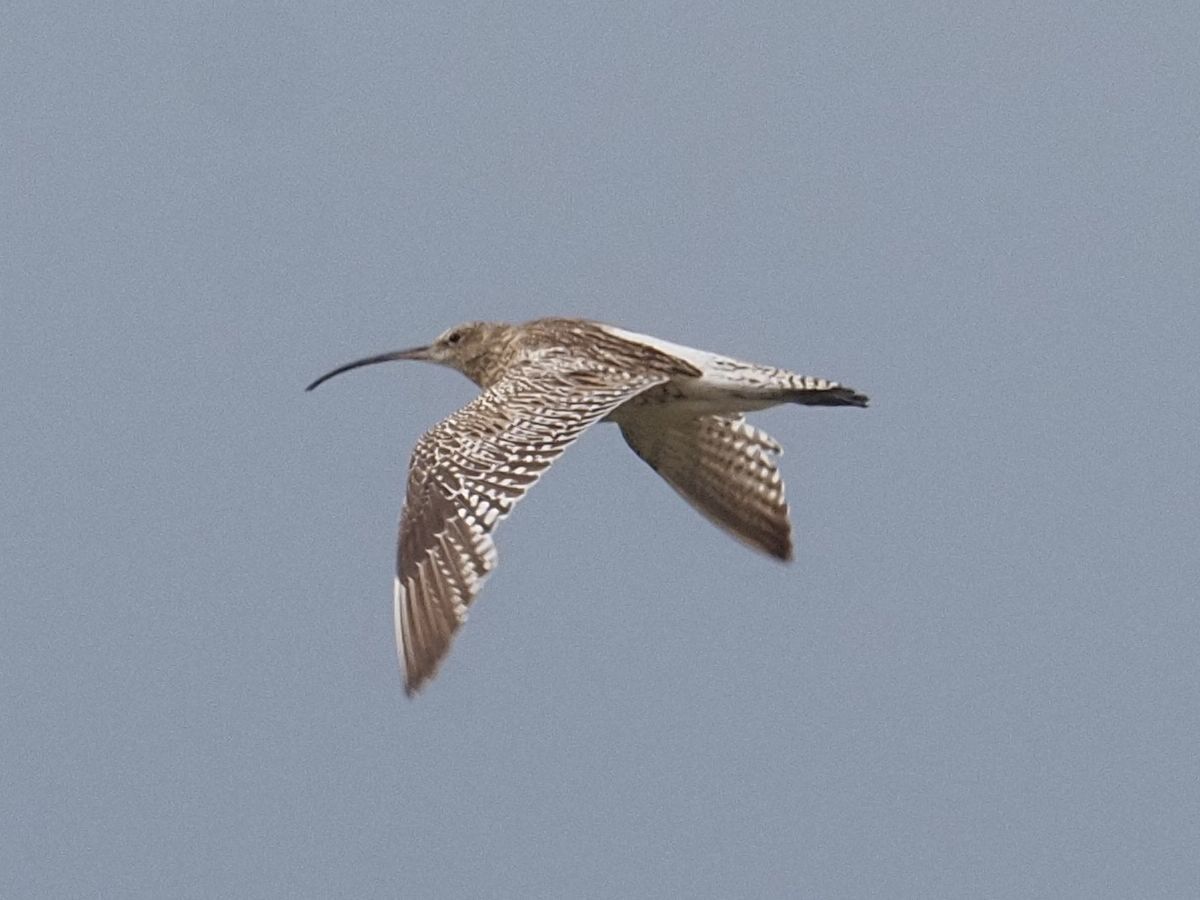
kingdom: Animalia
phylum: Chordata
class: Aves
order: Charadriiformes
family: Scolopacidae
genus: Numenius
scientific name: Numenius arquata
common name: Eurasian curlew
